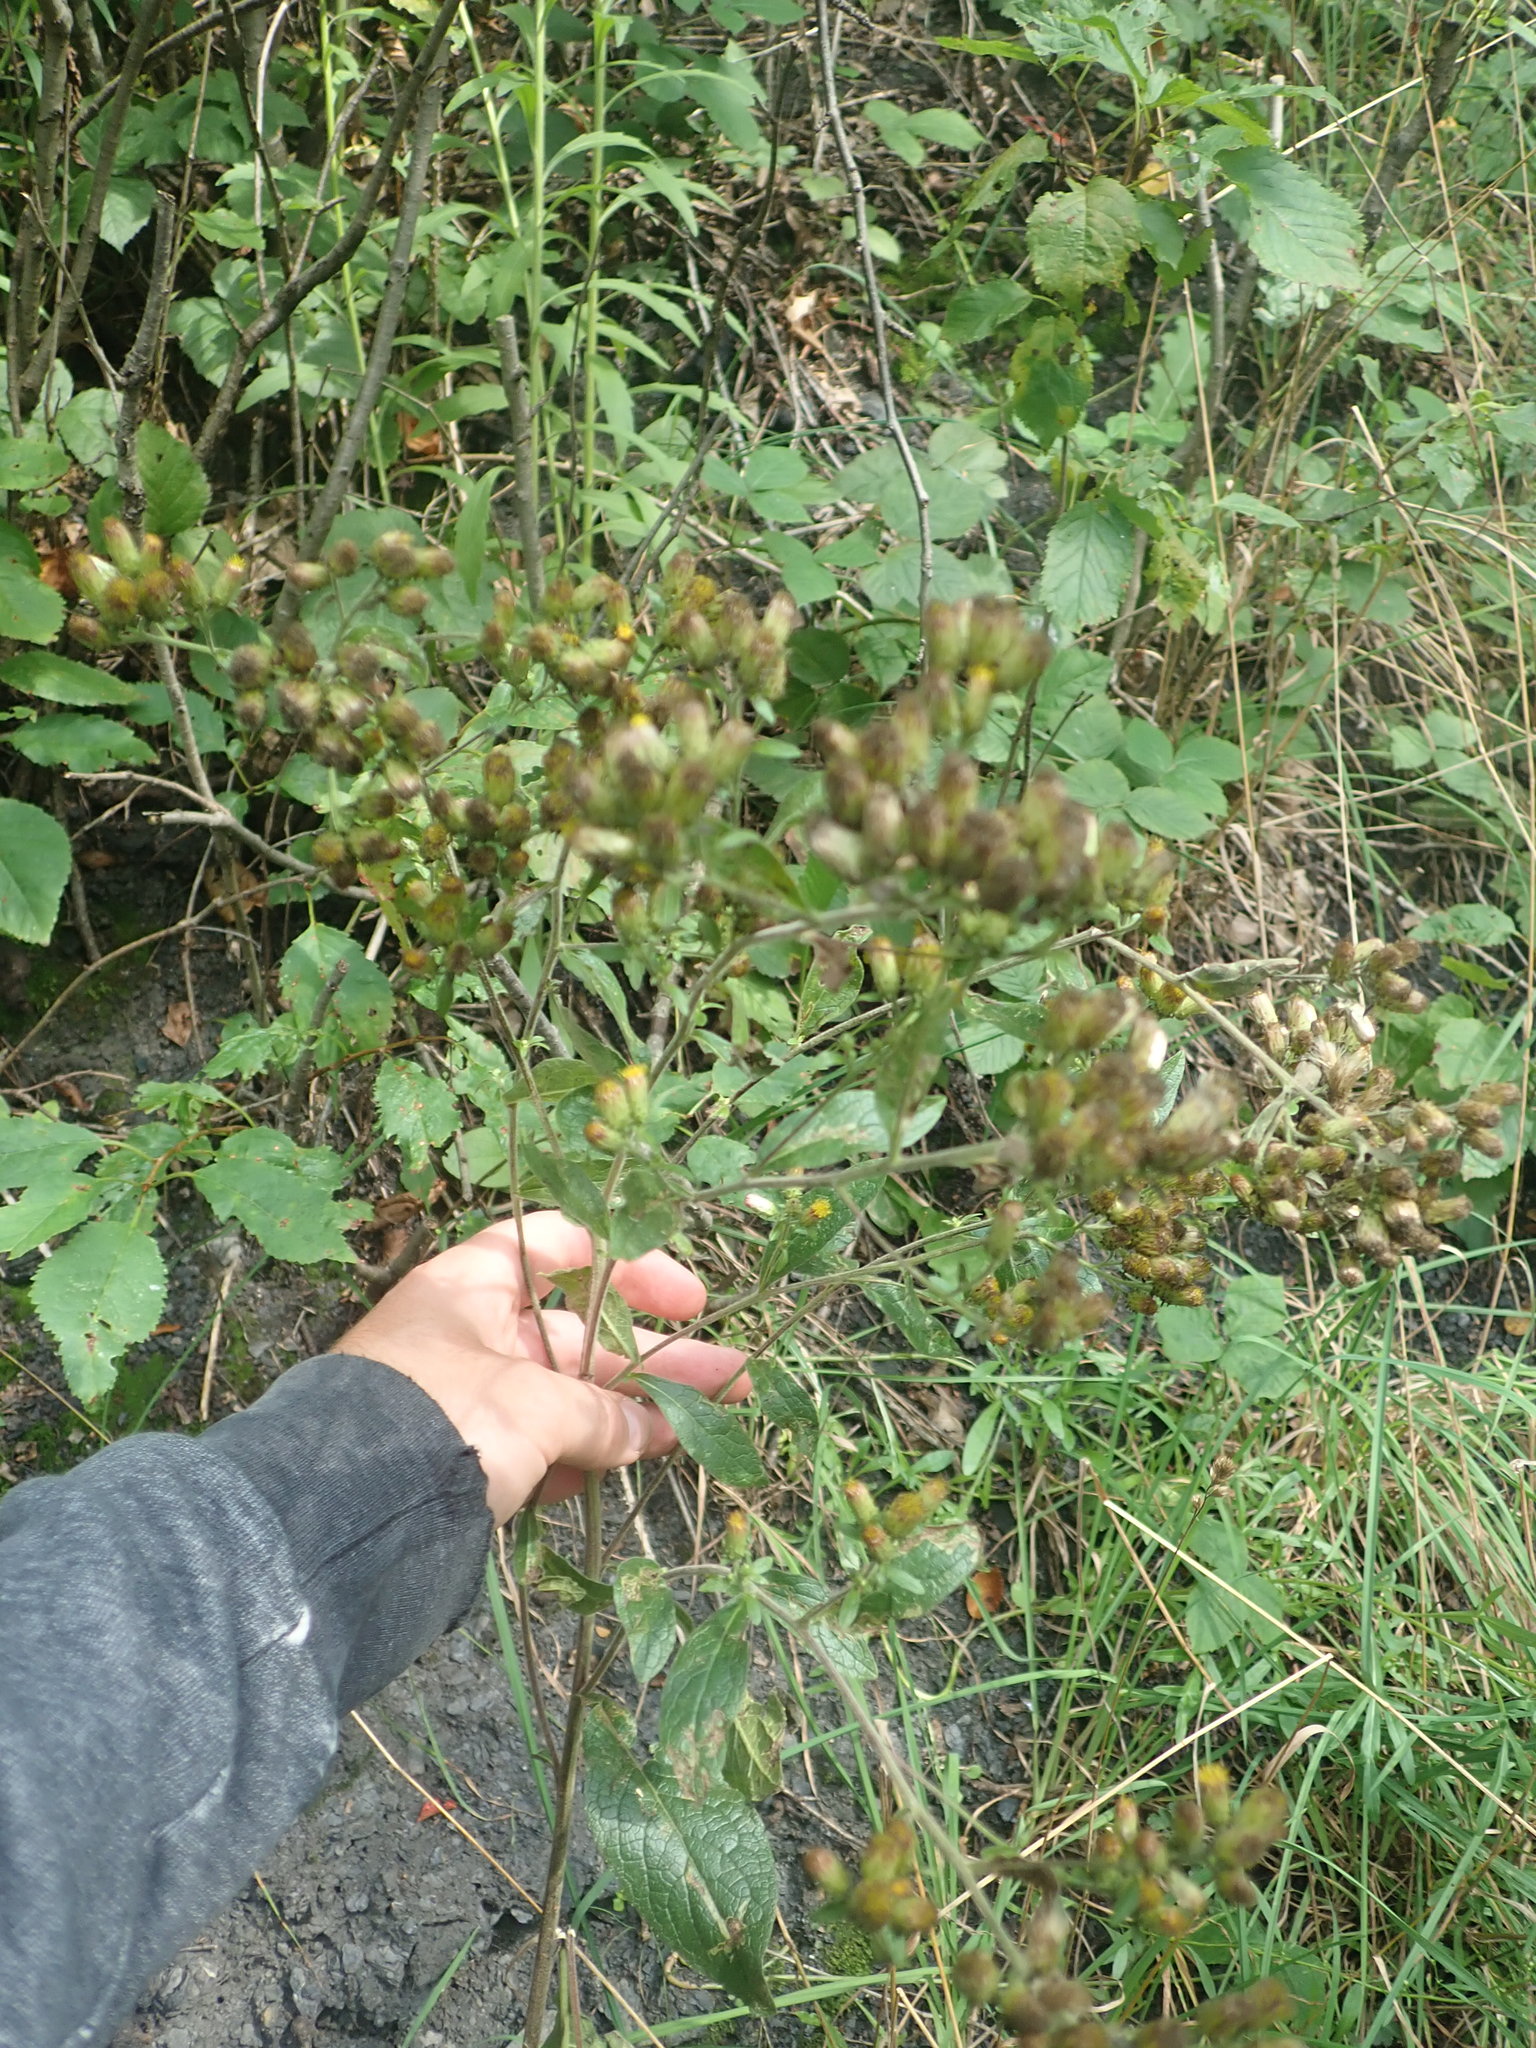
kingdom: Plantae
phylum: Tracheophyta
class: Magnoliopsida
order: Asterales
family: Asteraceae
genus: Pentanema
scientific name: Pentanema squarrosum
